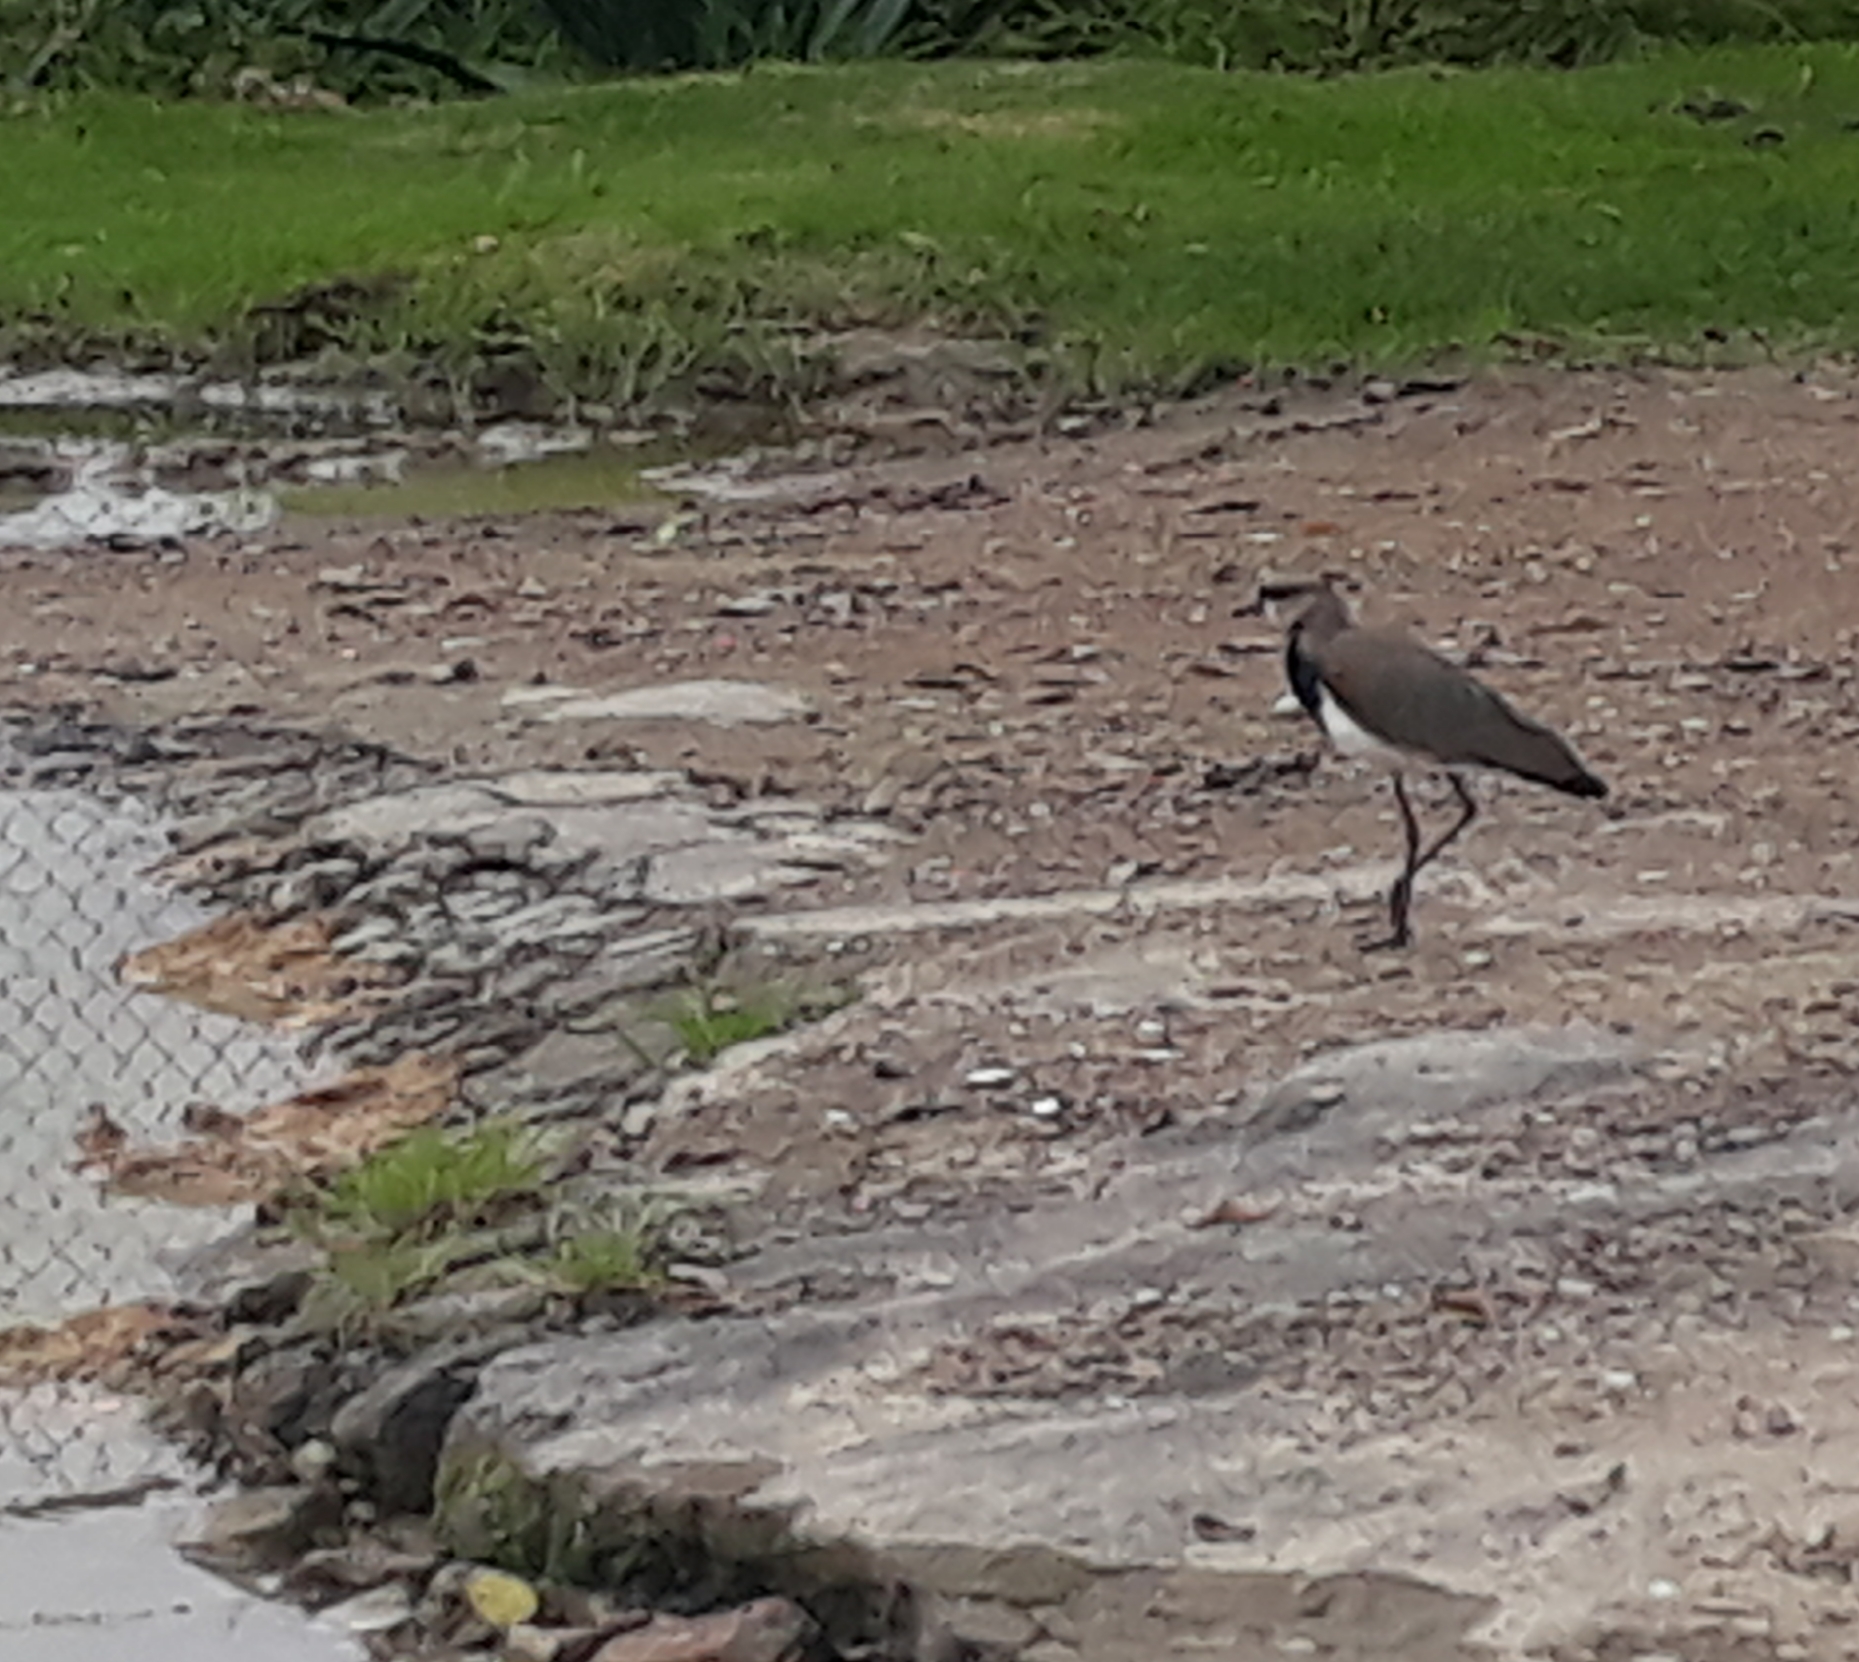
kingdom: Animalia
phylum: Chordata
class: Aves
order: Charadriiformes
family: Charadriidae
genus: Vanellus
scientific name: Vanellus chilensis
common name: Southern lapwing
